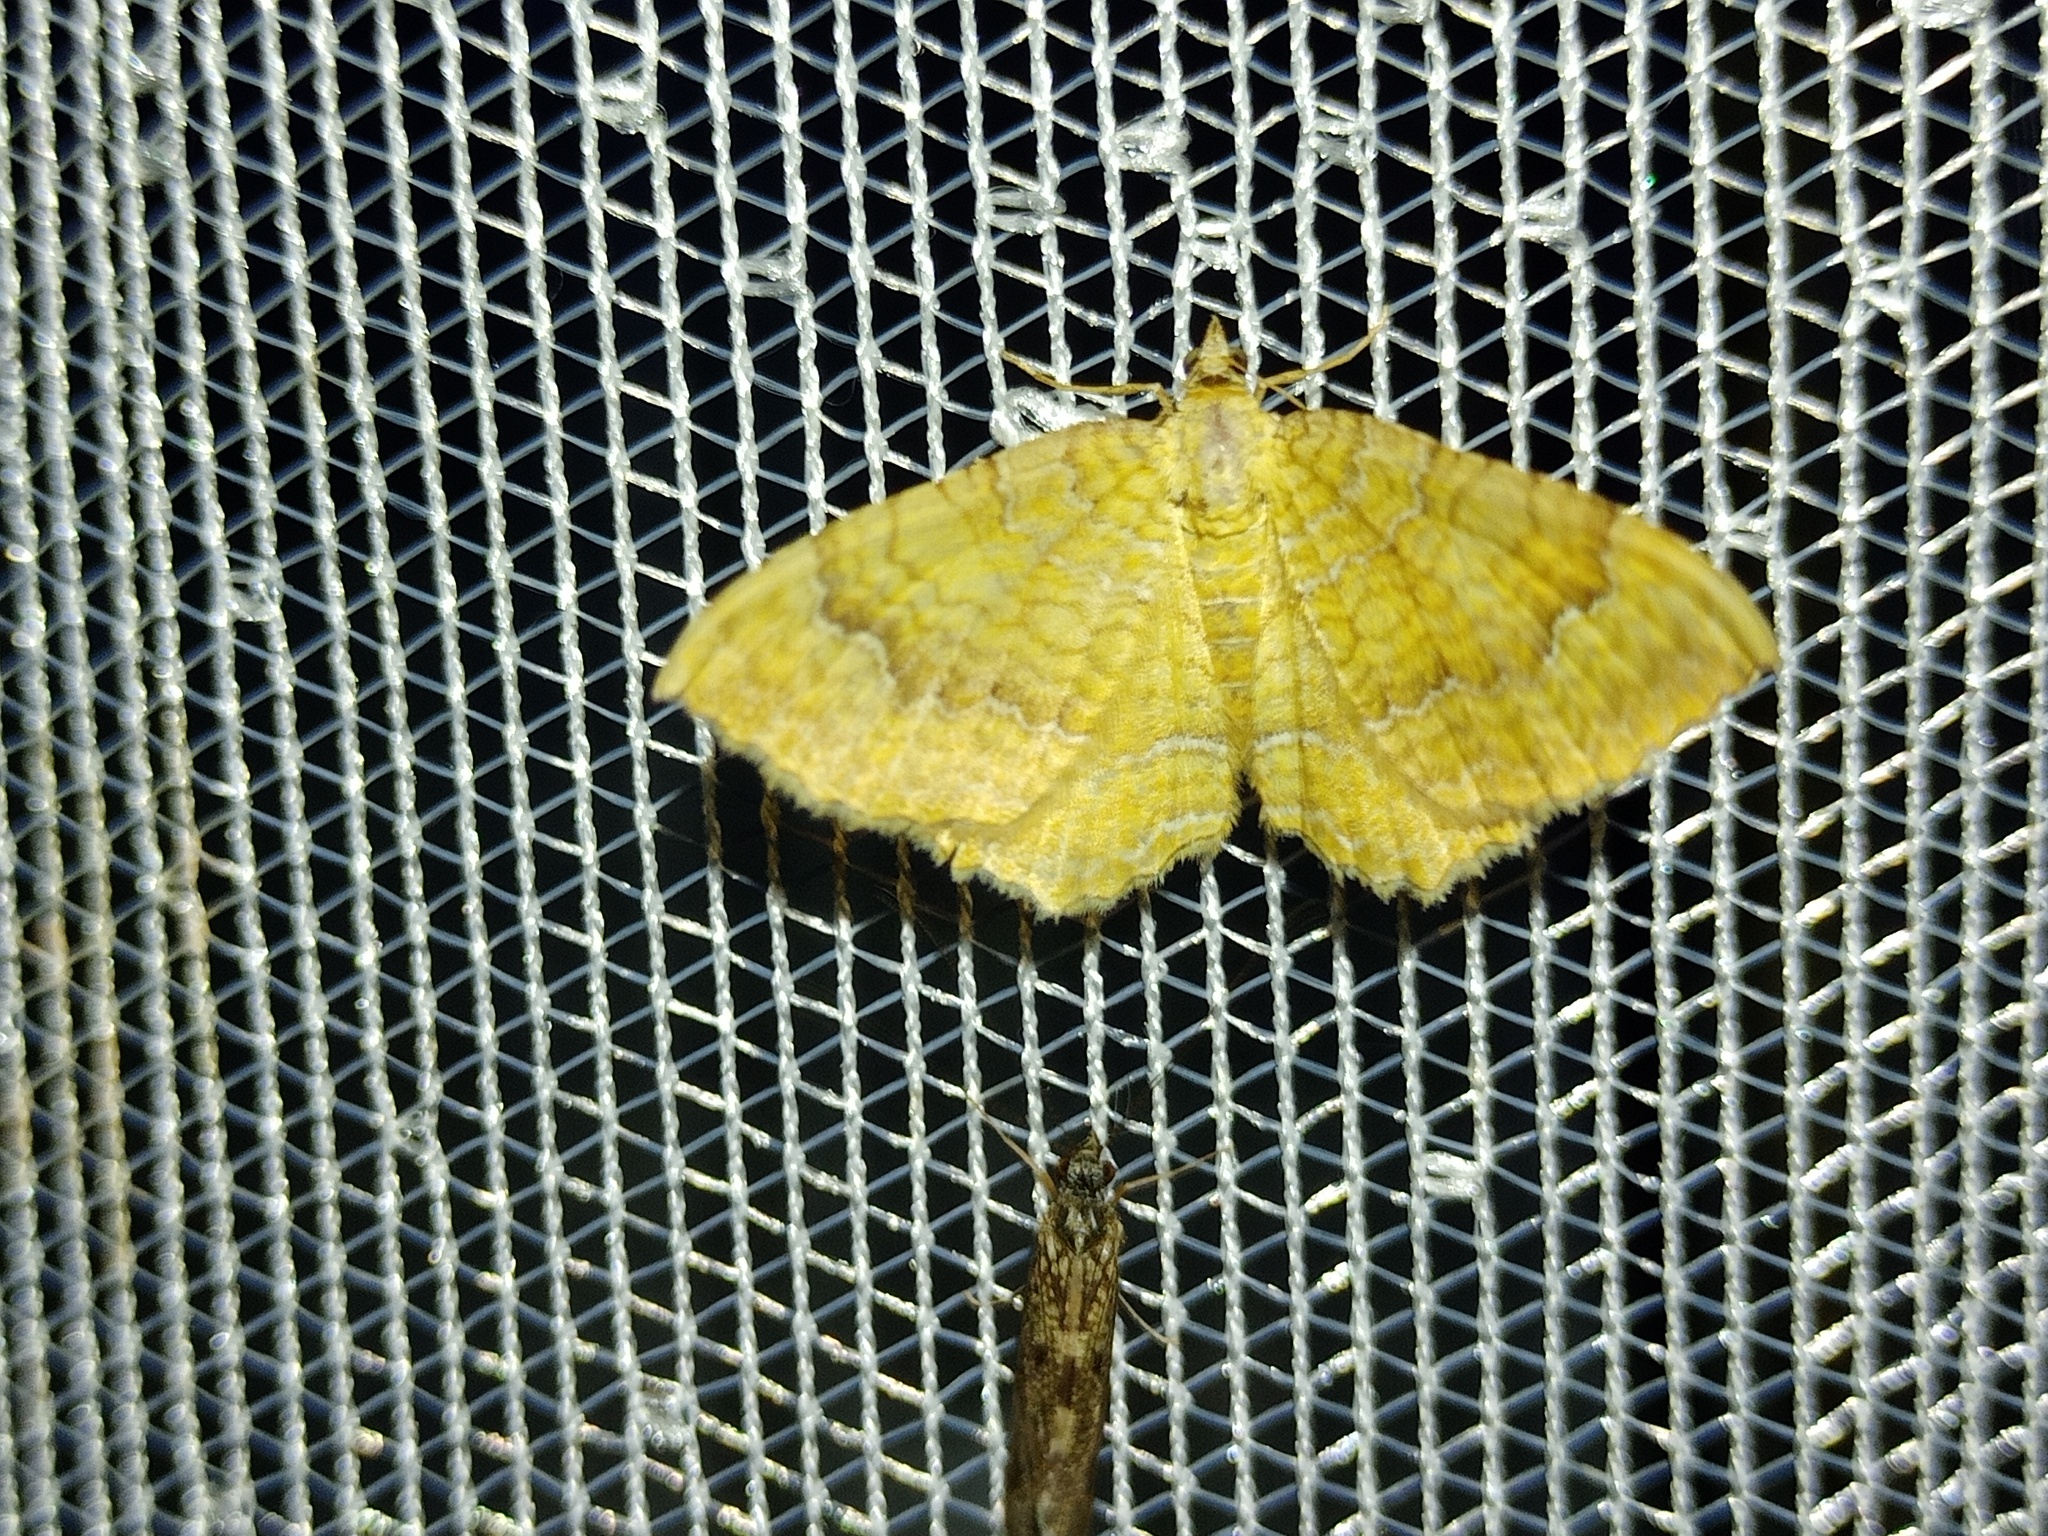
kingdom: Animalia
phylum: Arthropoda
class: Insecta
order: Lepidoptera
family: Geometridae
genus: Camptogramma
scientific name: Camptogramma bilineata
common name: Yellow shell
